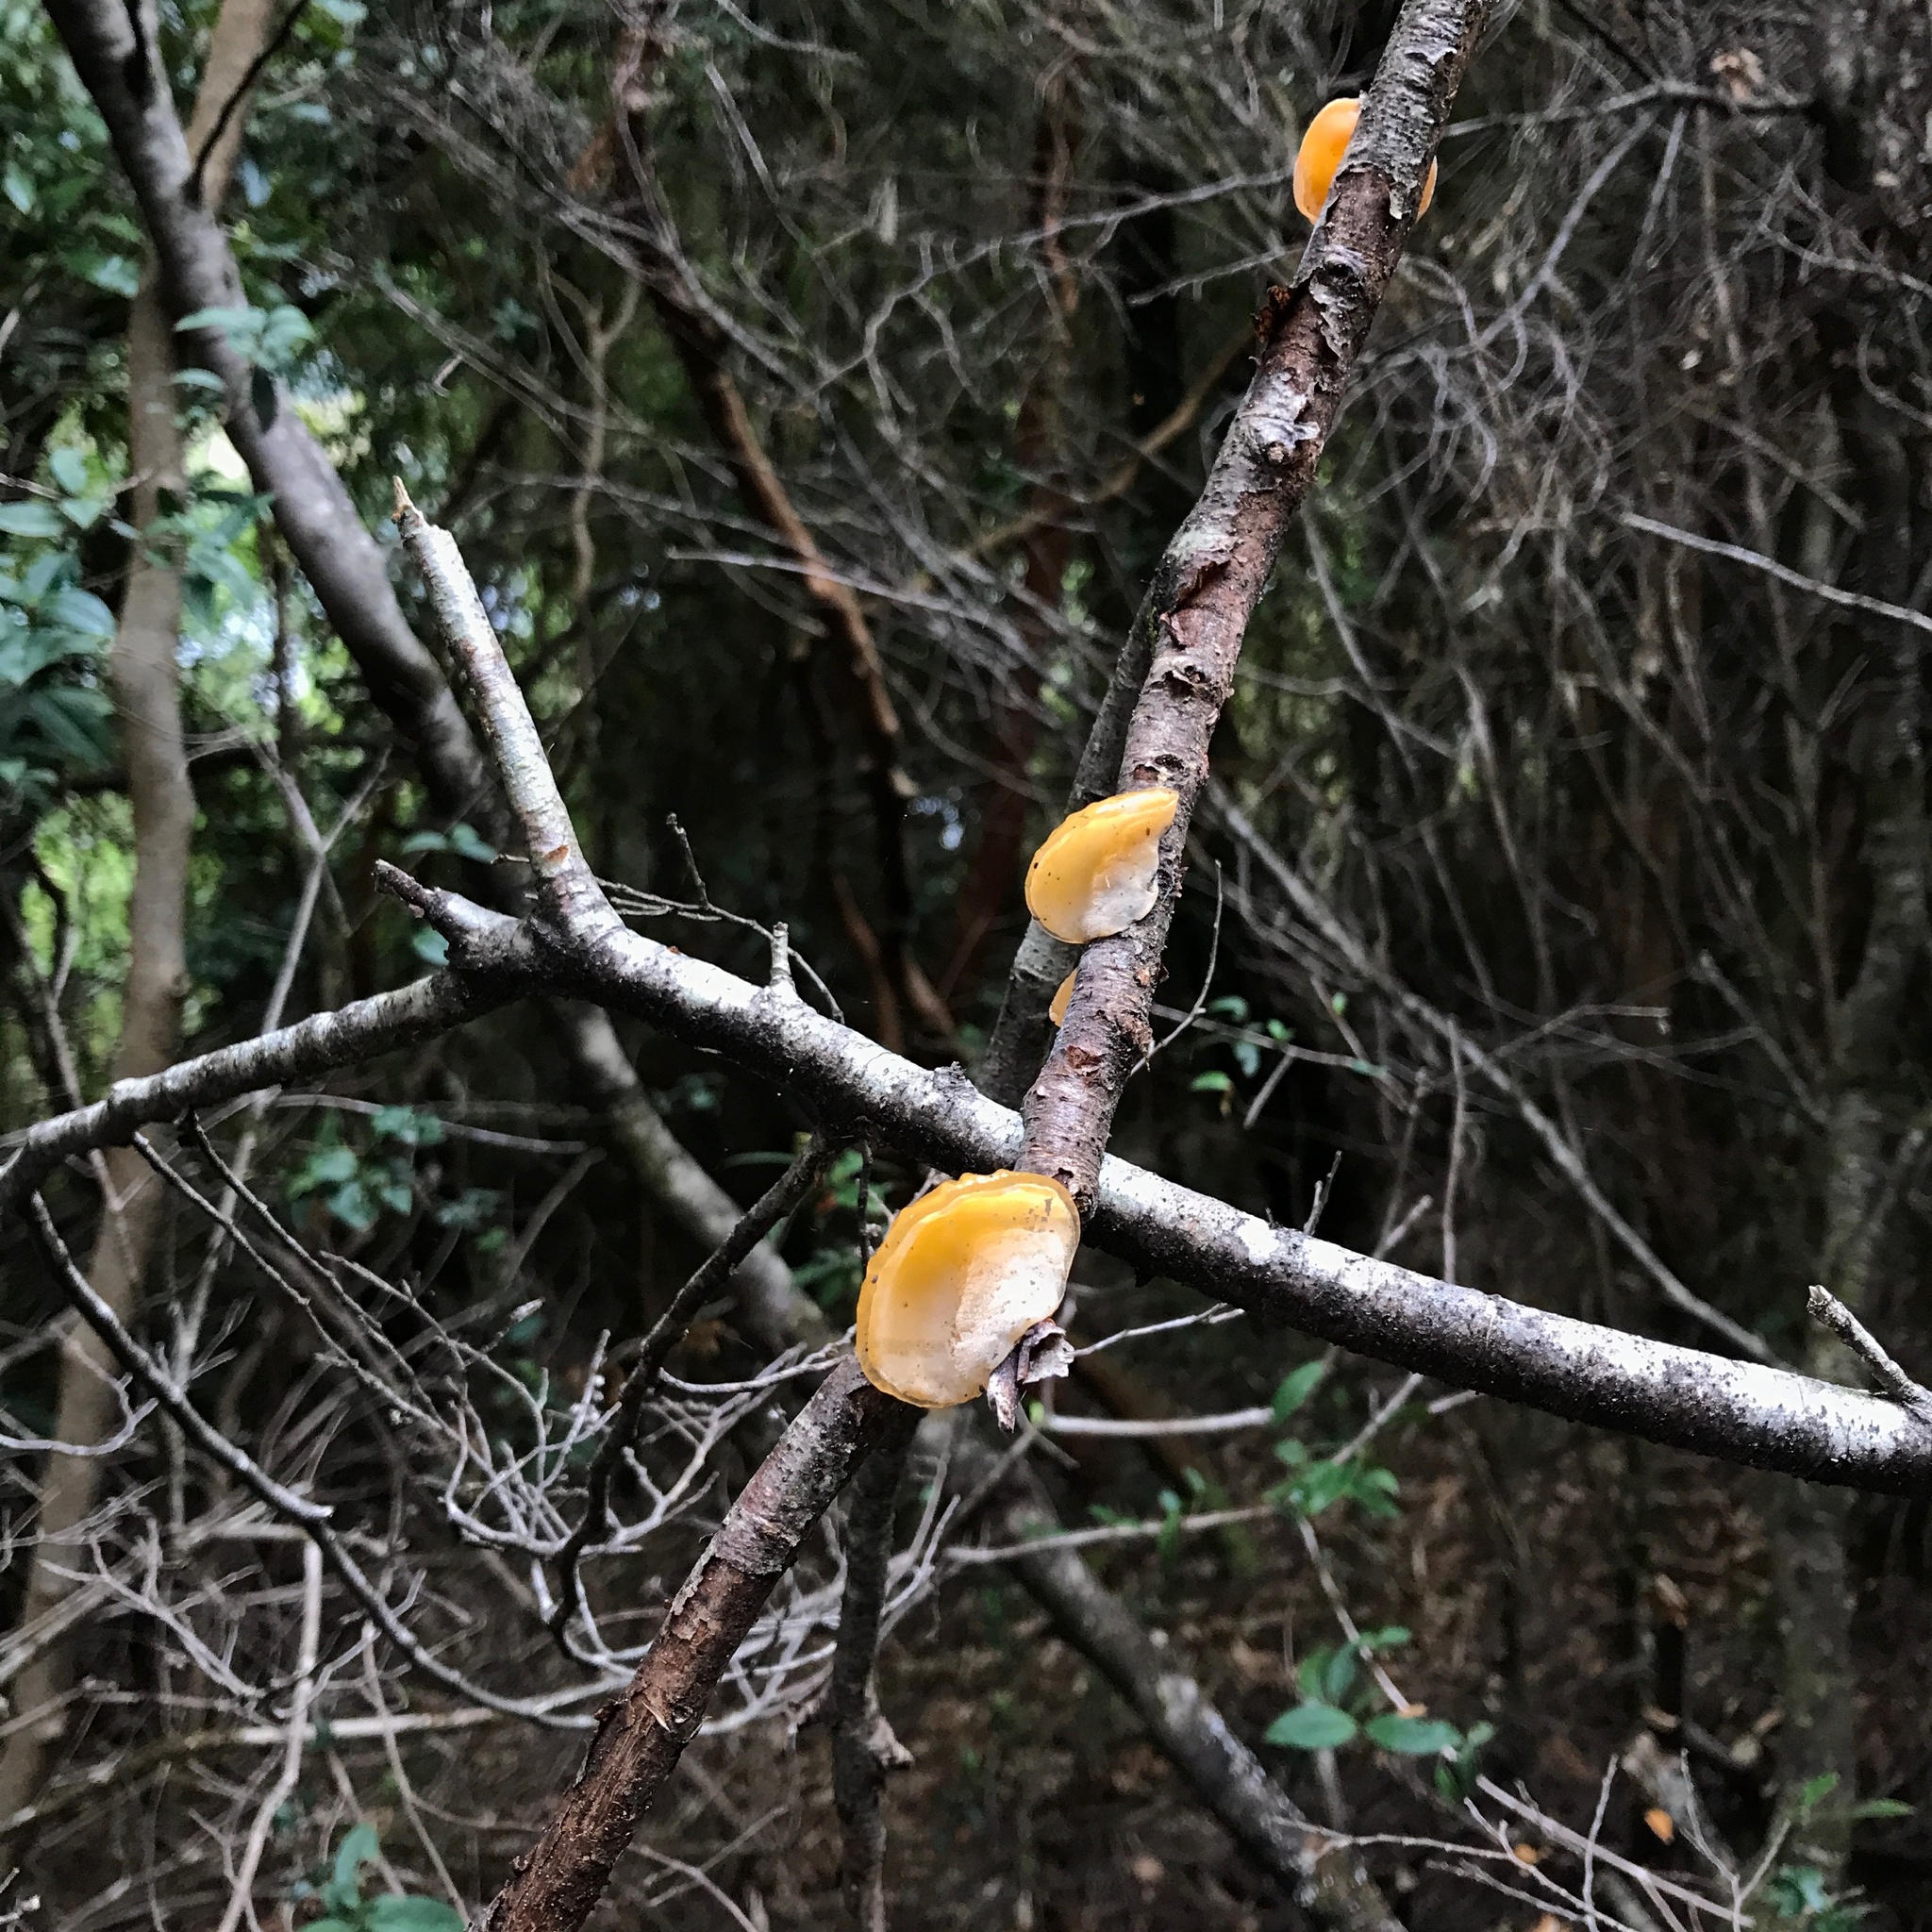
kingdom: Fungi
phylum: Basidiomycota
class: Agaricomycetes
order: Russulales
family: Stereaceae
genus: Aleurodiscus
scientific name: Aleurodiscus vitellinus
